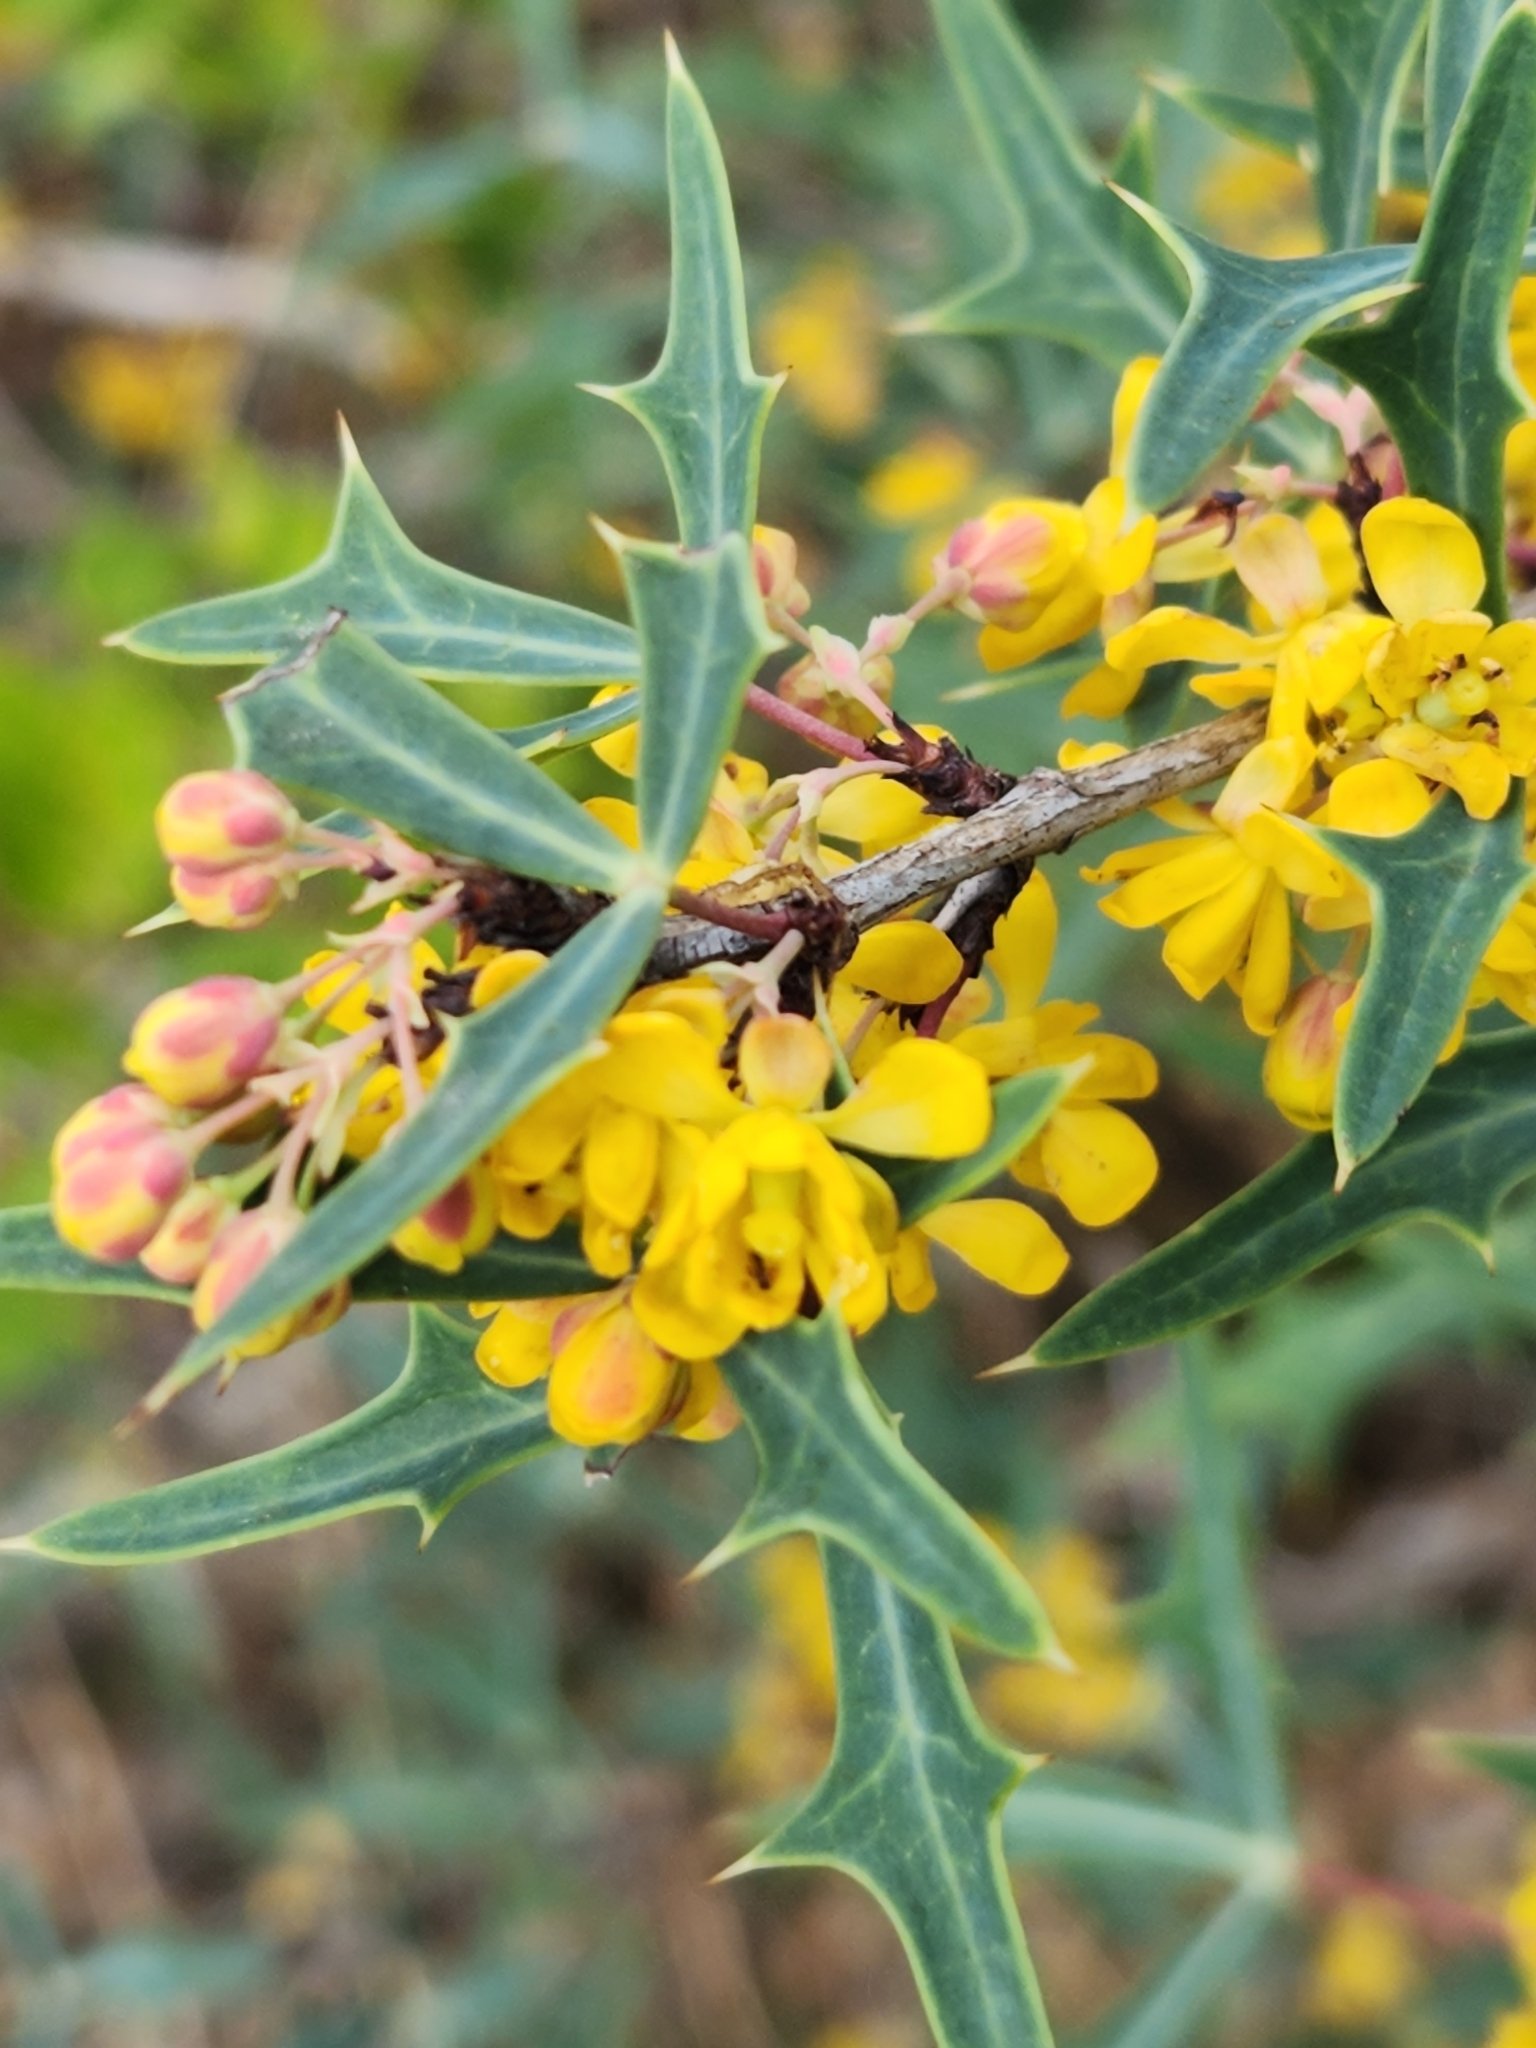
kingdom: Plantae
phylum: Tracheophyta
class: Magnoliopsida
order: Ranunculales
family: Berberidaceae
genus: Alloberberis
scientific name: Alloberberis trifoliolata
